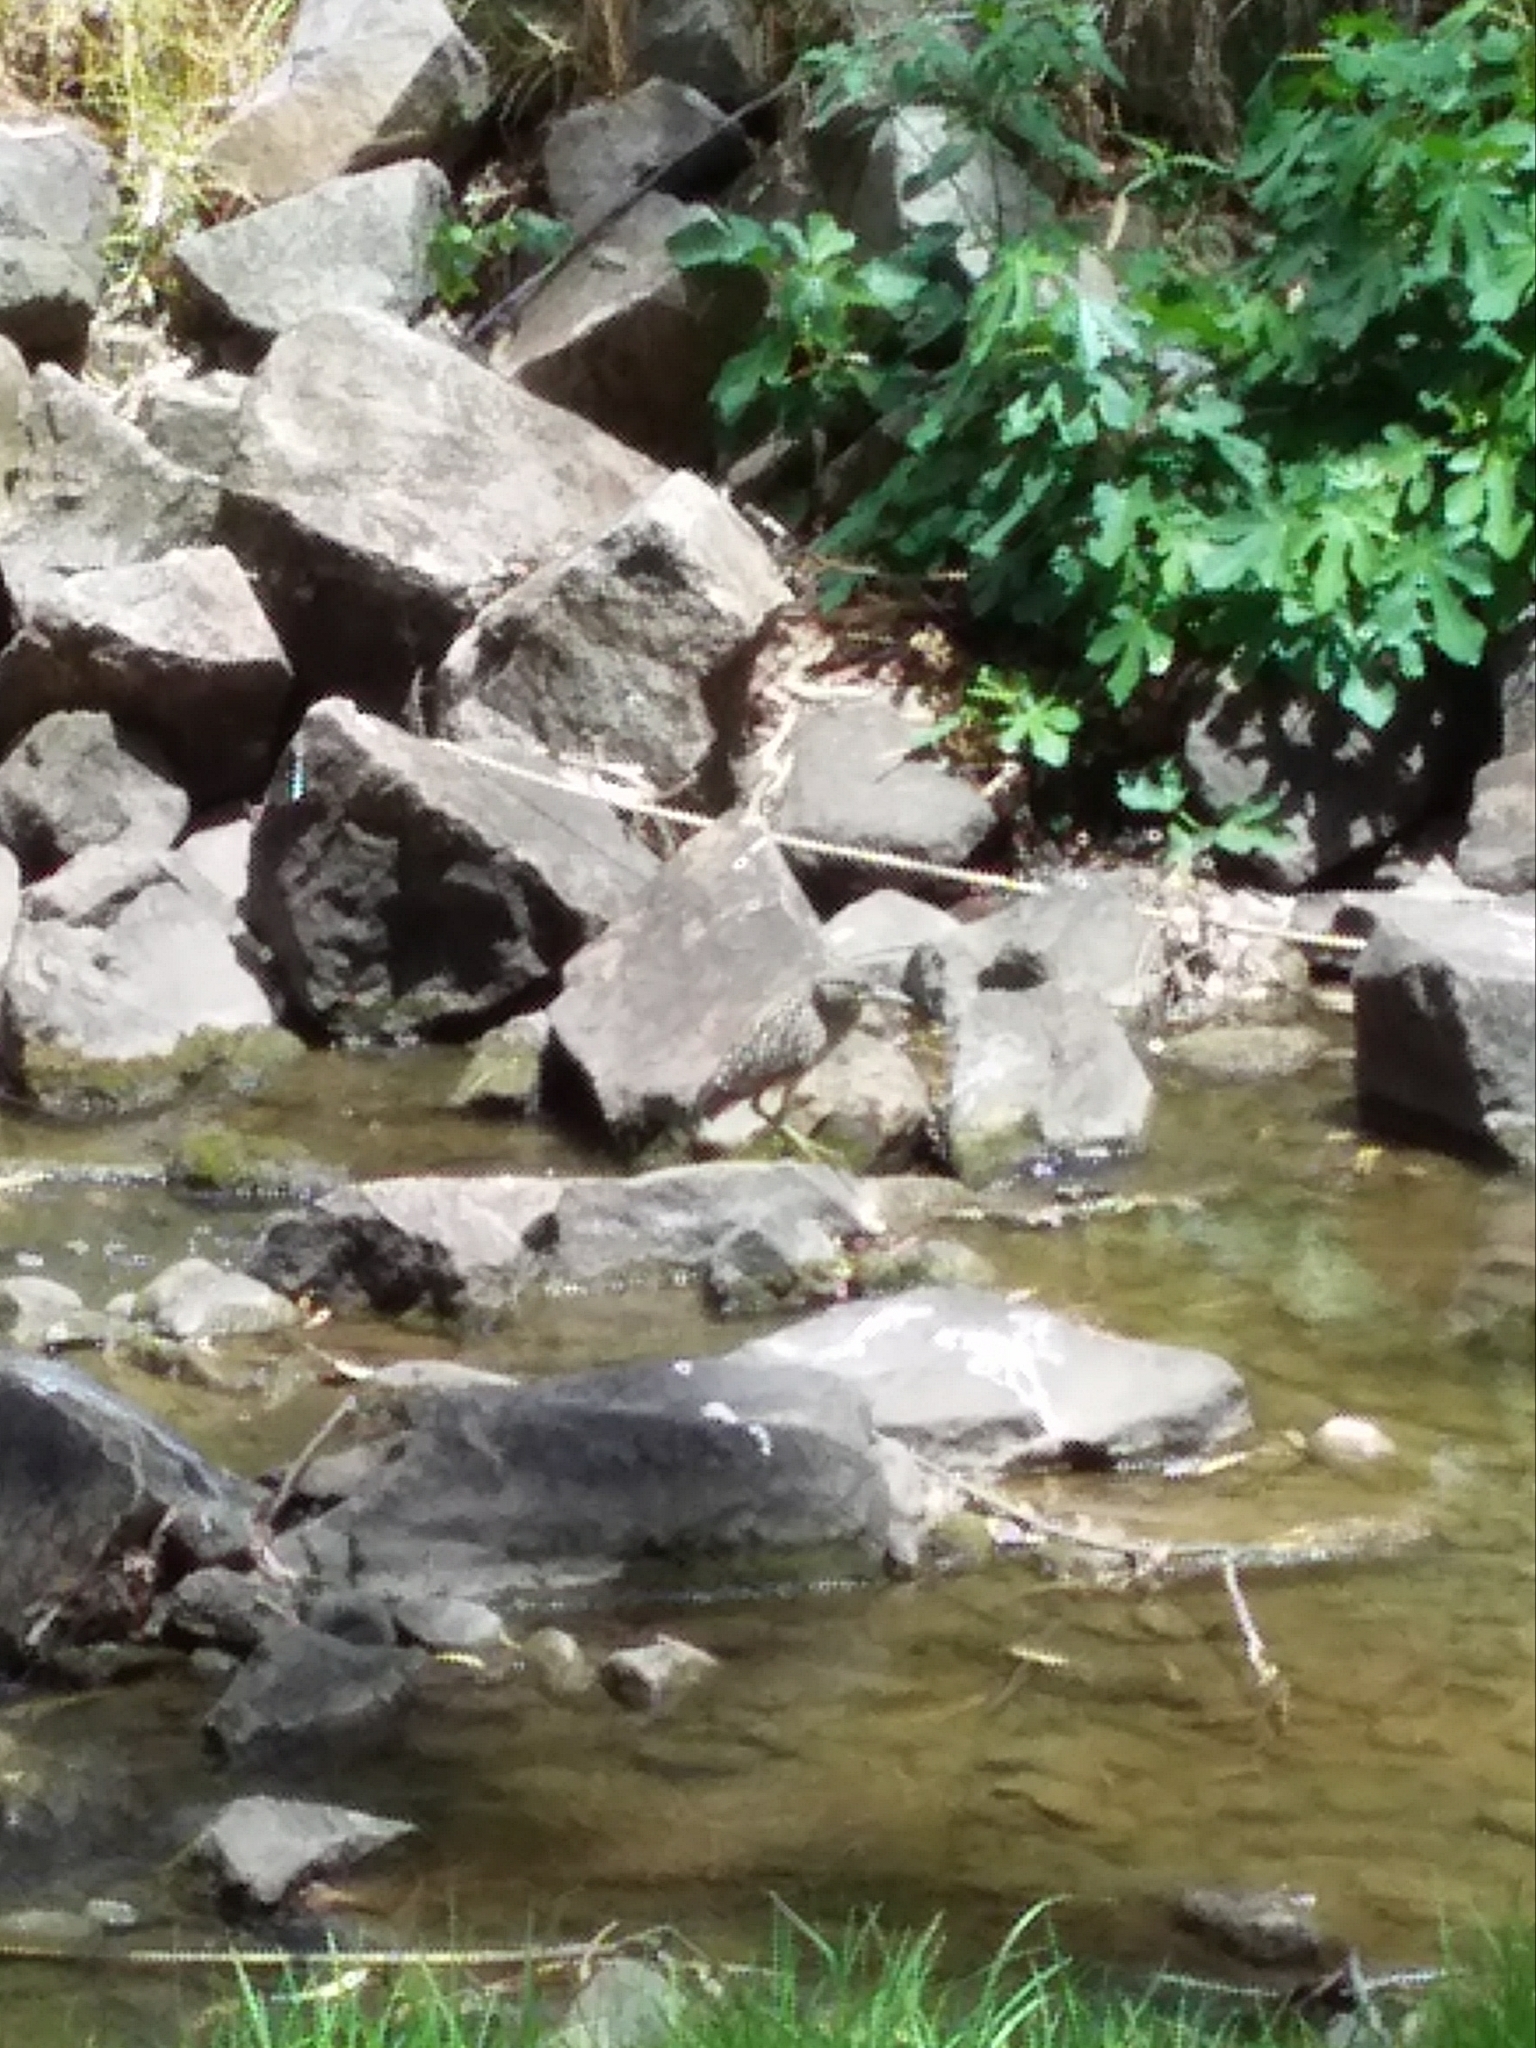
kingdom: Animalia
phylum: Chordata
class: Aves
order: Pelecaniformes
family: Ardeidae
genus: Nycticorax
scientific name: Nycticorax caledonicus
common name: Rufous night-heron
